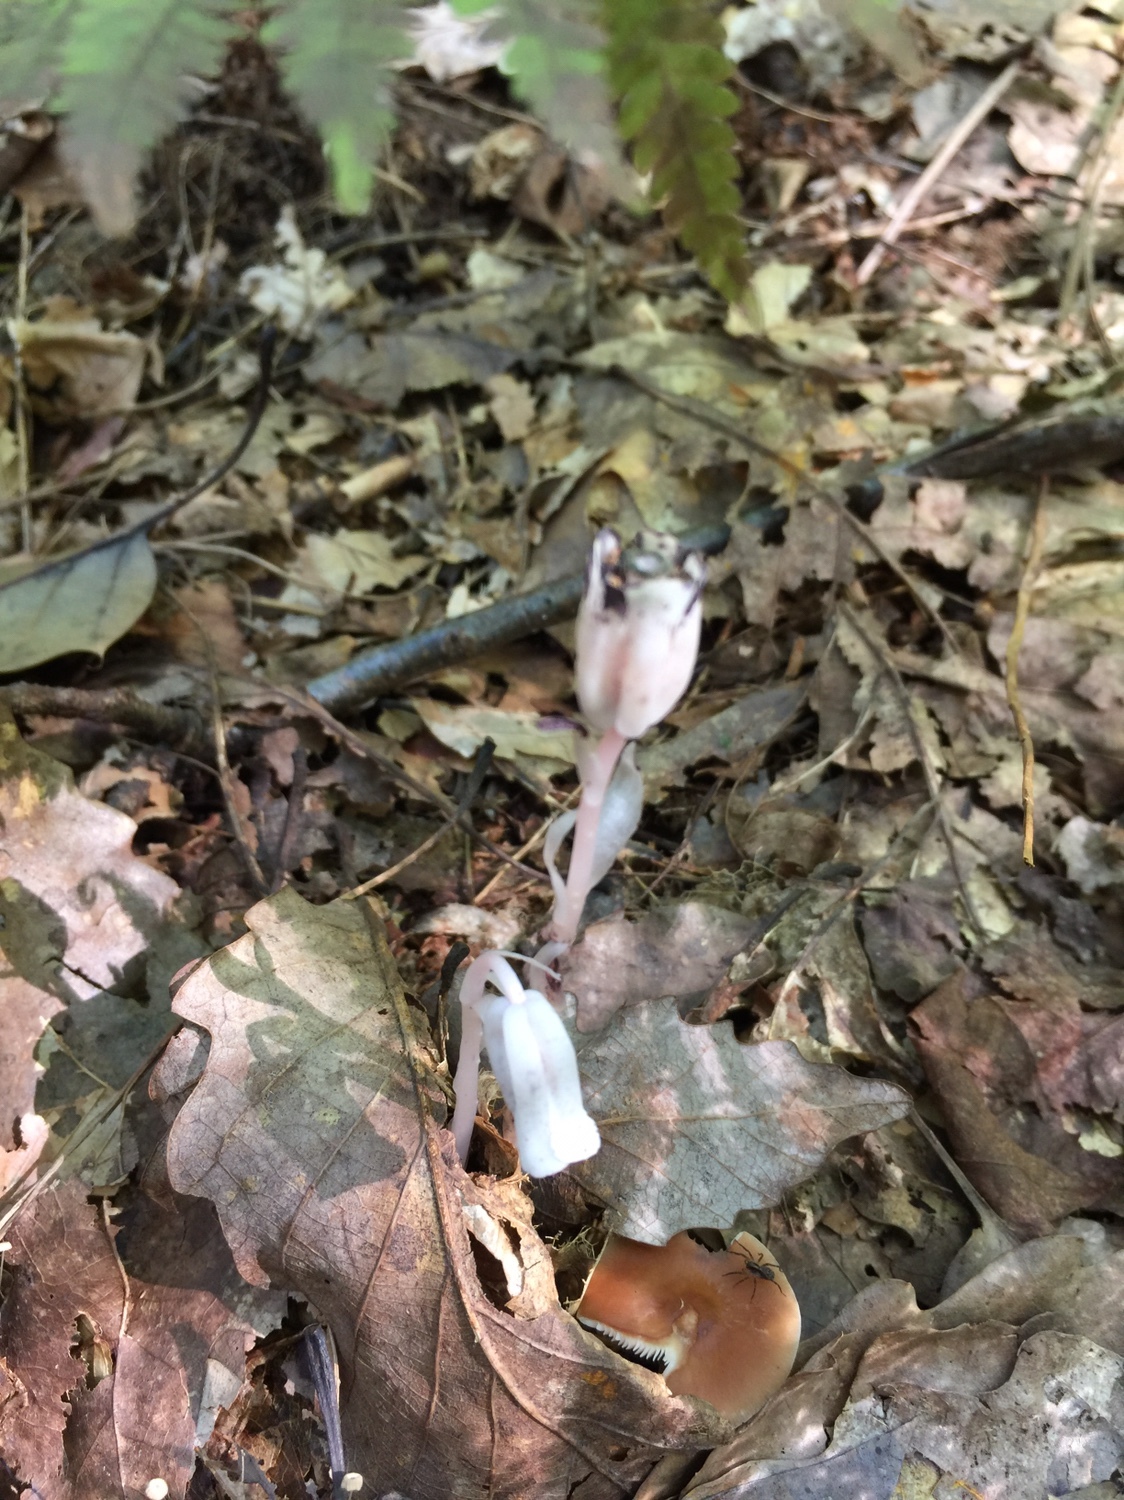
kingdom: Plantae
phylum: Tracheophyta
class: Magnoliopsida
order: Ericales
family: Ericaceae
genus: Monotropa
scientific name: Monotropa uniflora
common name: Convulsion root
